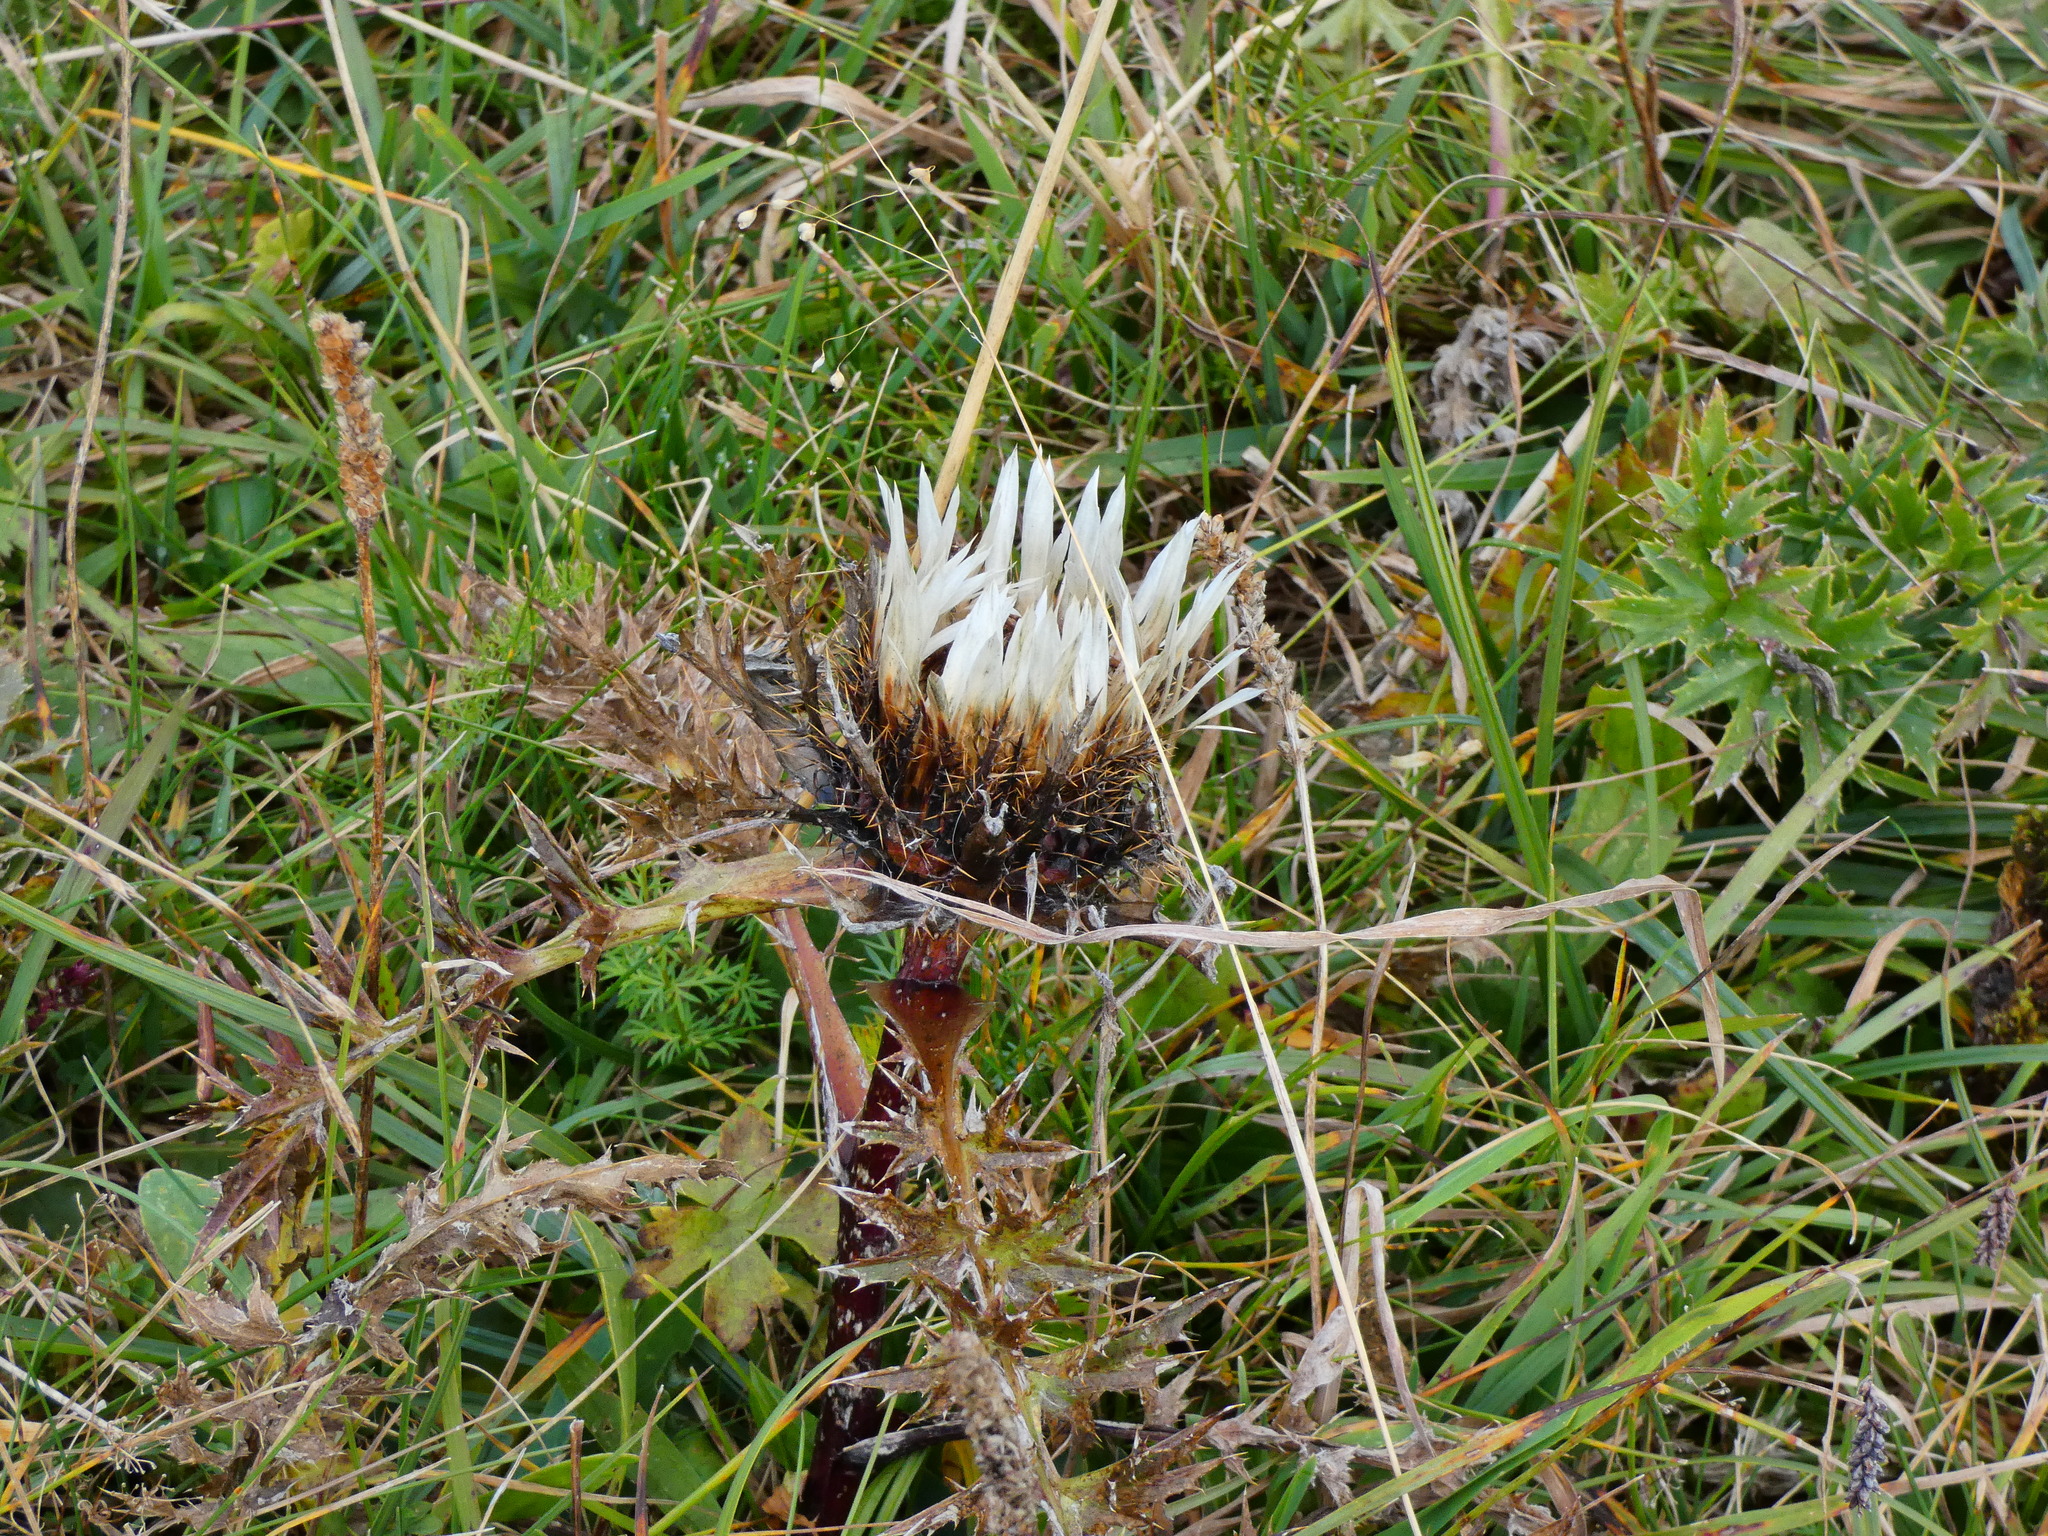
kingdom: Plantae
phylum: Tracheophyta
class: Magnoliopsida
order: Asterales
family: Asteraceae
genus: Carlina
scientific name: Carlina acaulis
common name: Stemless carline thistle
